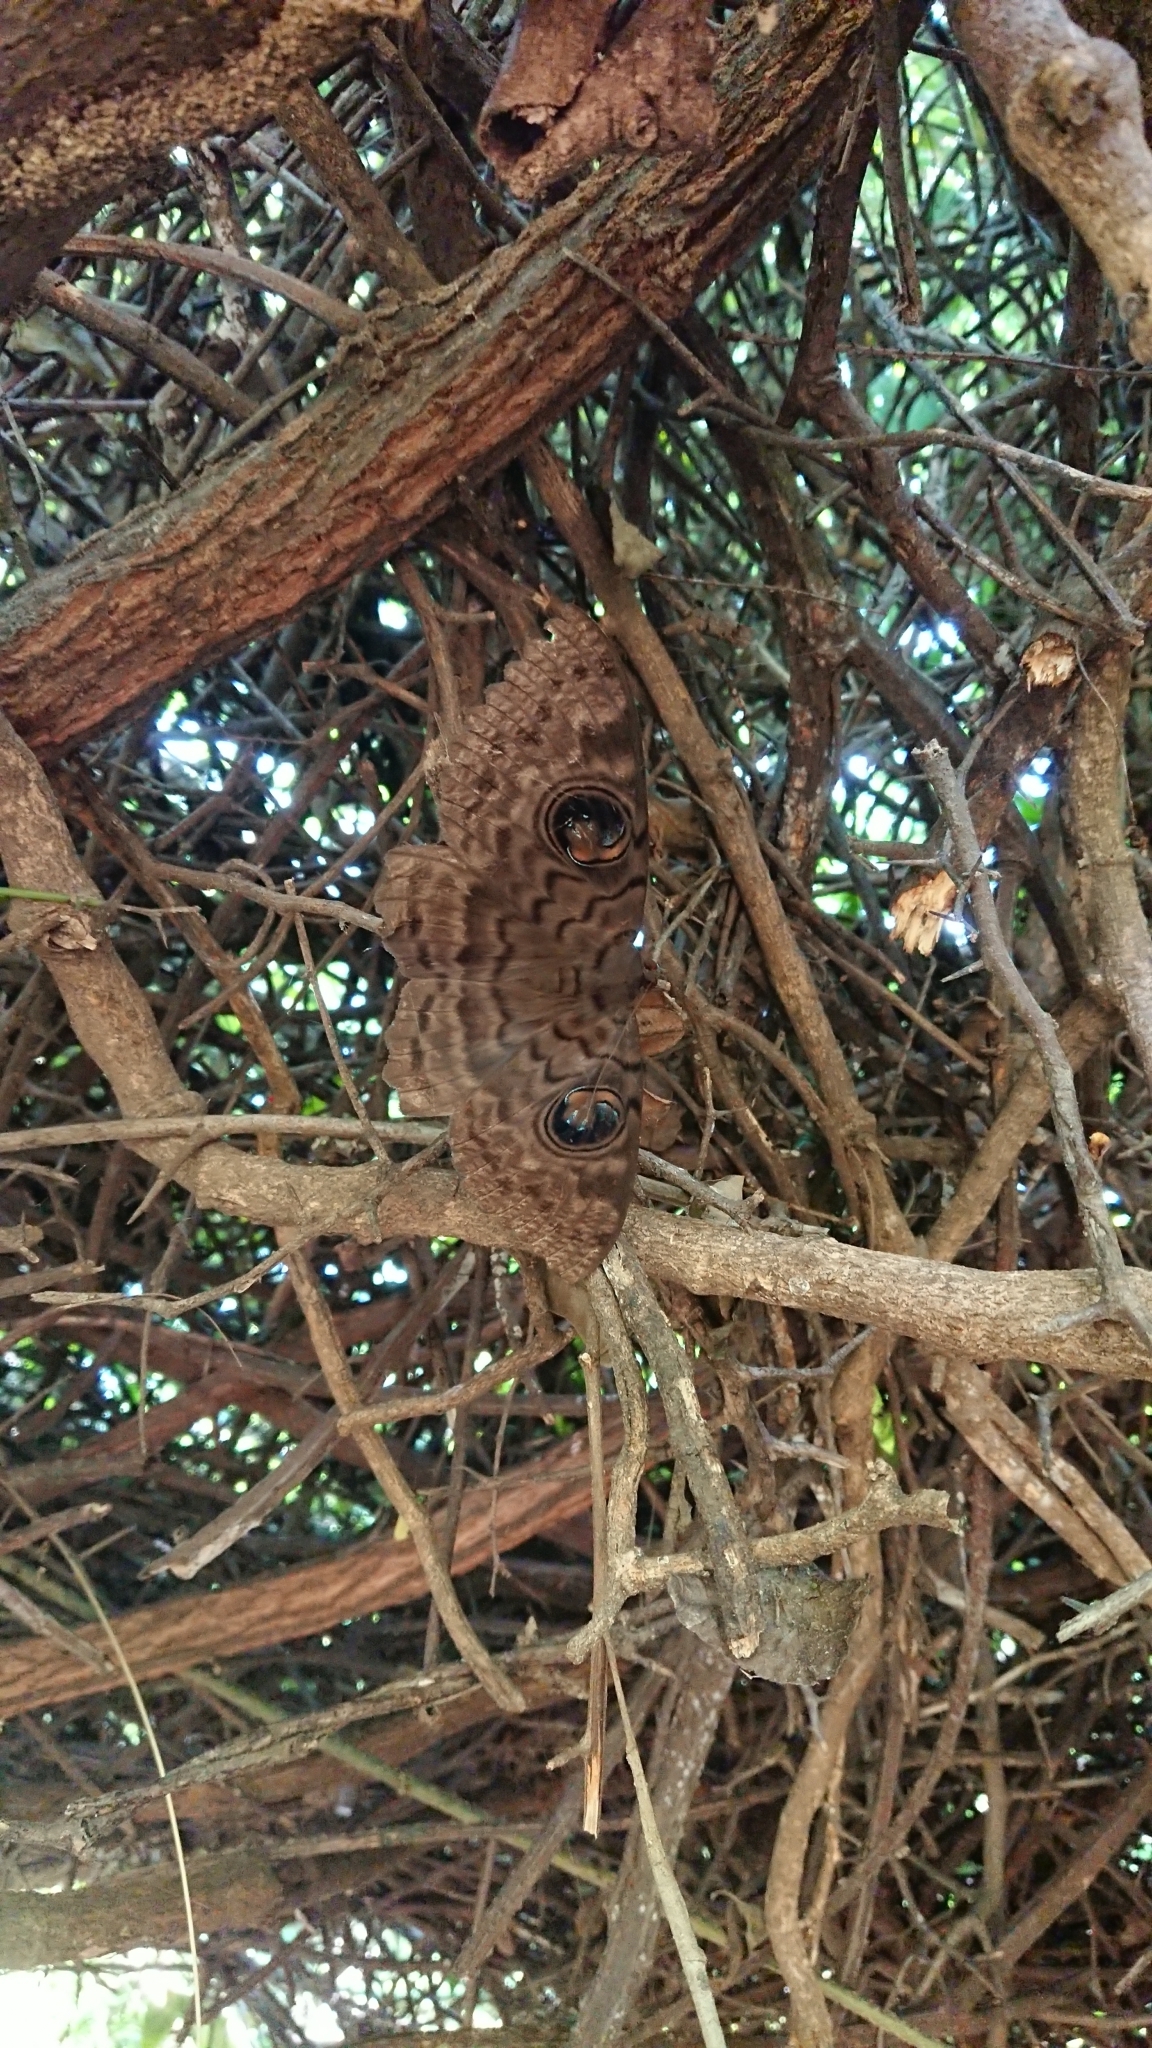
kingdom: Animalia
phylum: Arthropoda
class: Insecta
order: Lepidoptera
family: Erebidae
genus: Erebus
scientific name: Erebus walkeri
